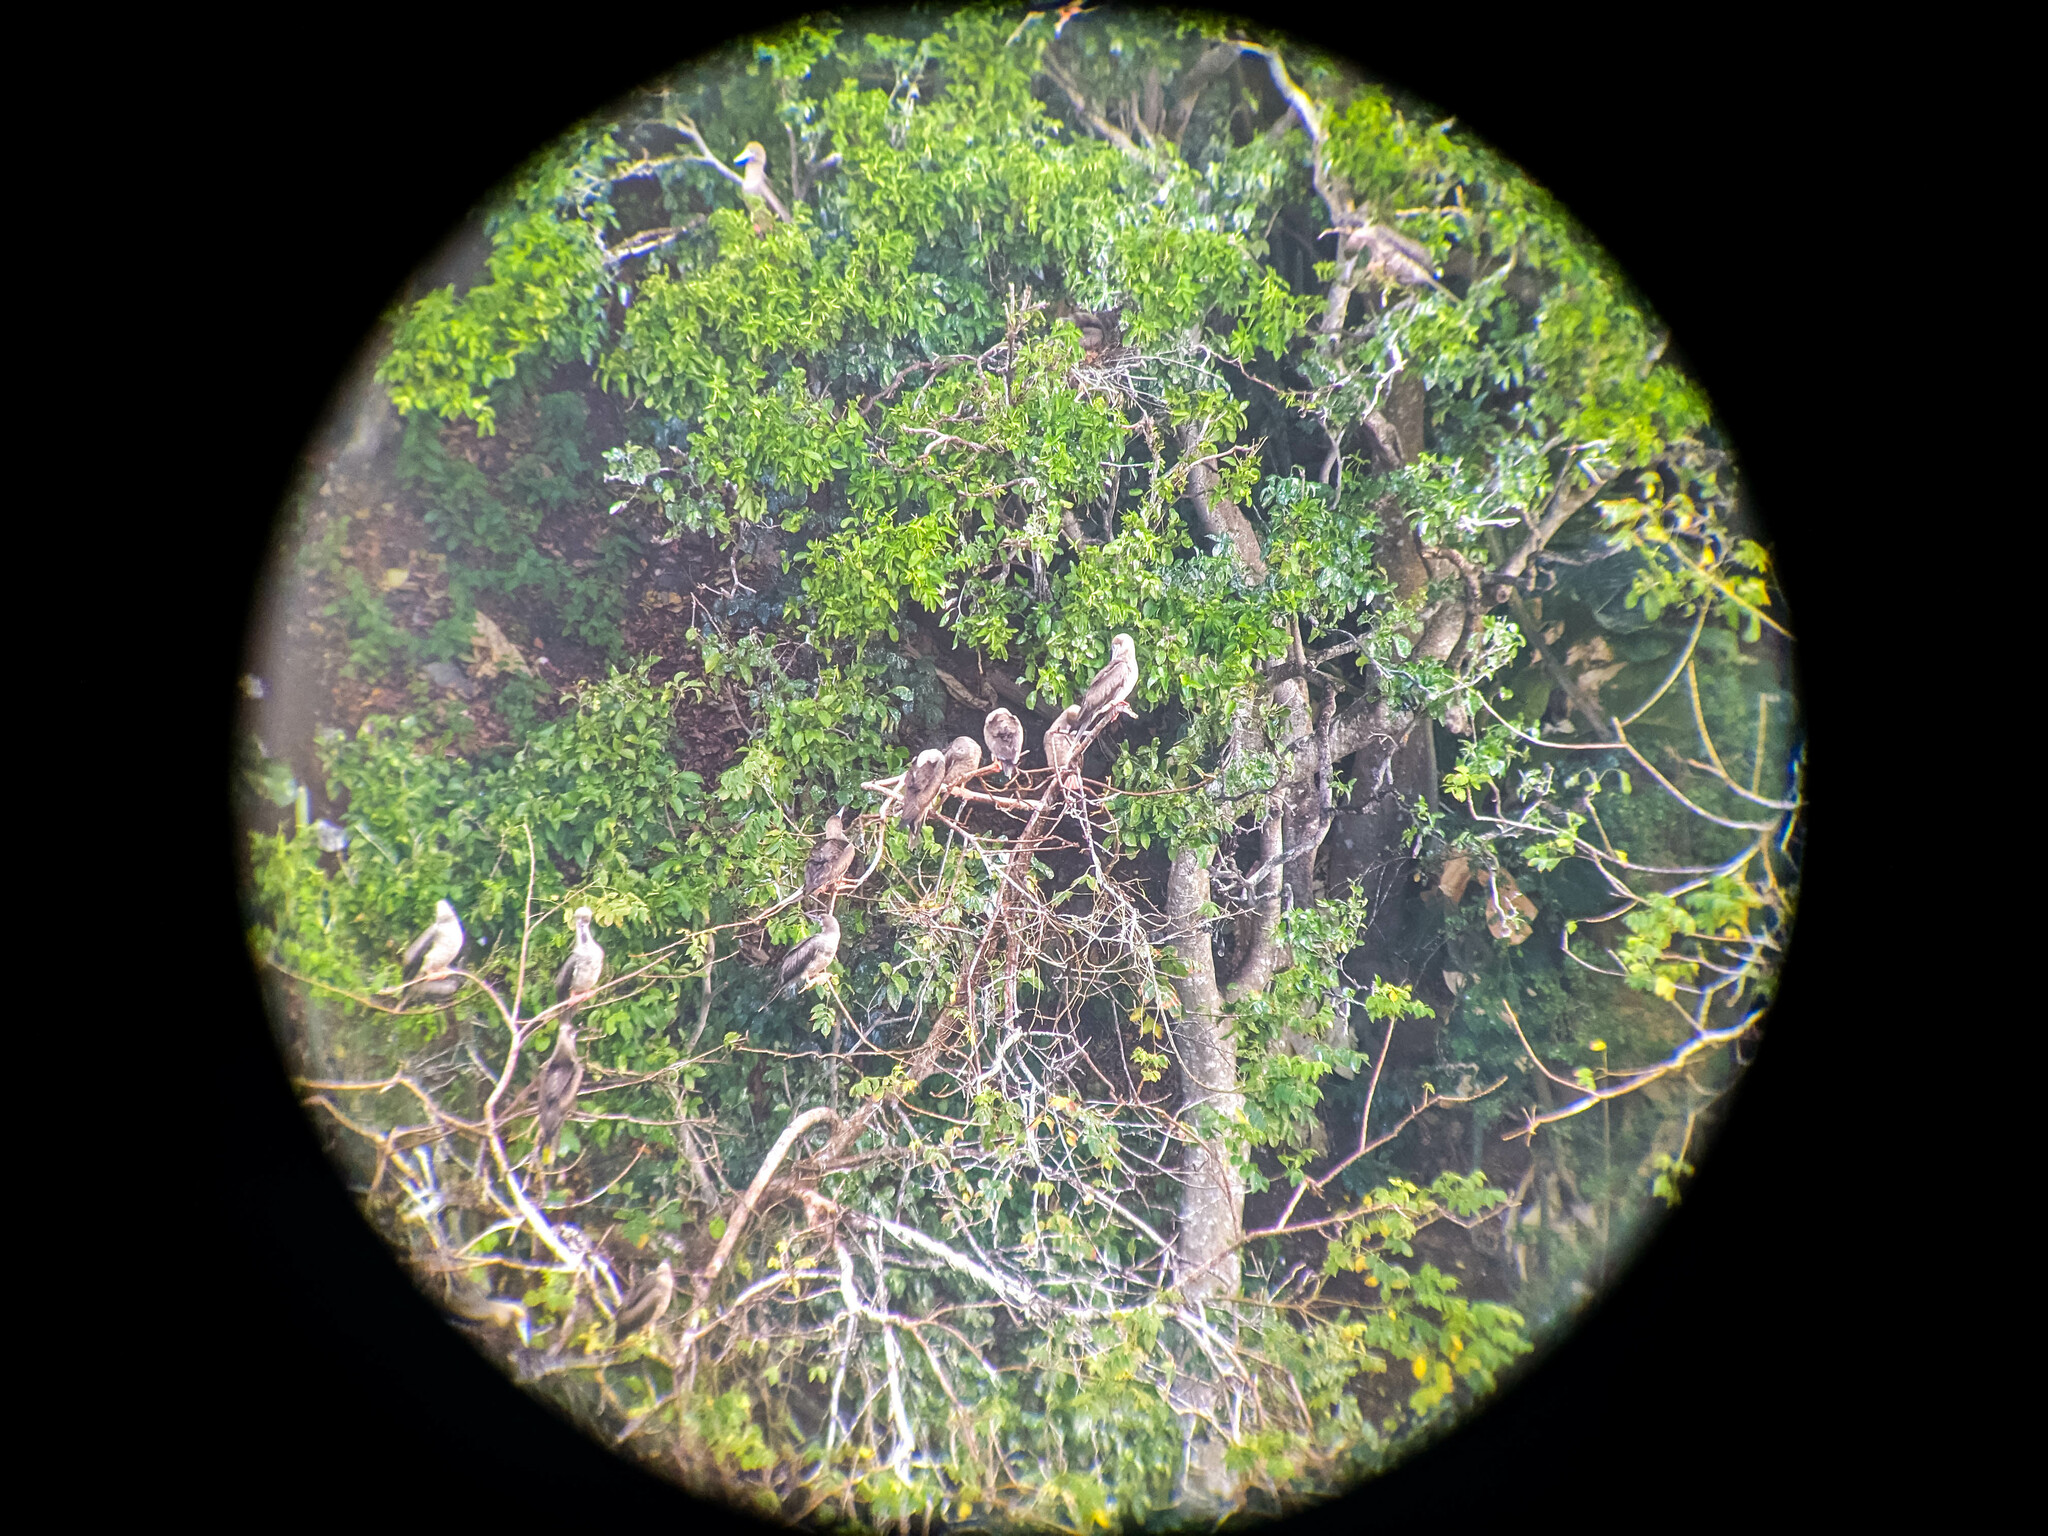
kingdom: Animalia
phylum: Chordata
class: Aves
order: Suliformes
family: Sulidae
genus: Sula
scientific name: Sula sula
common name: Red-footed booby
